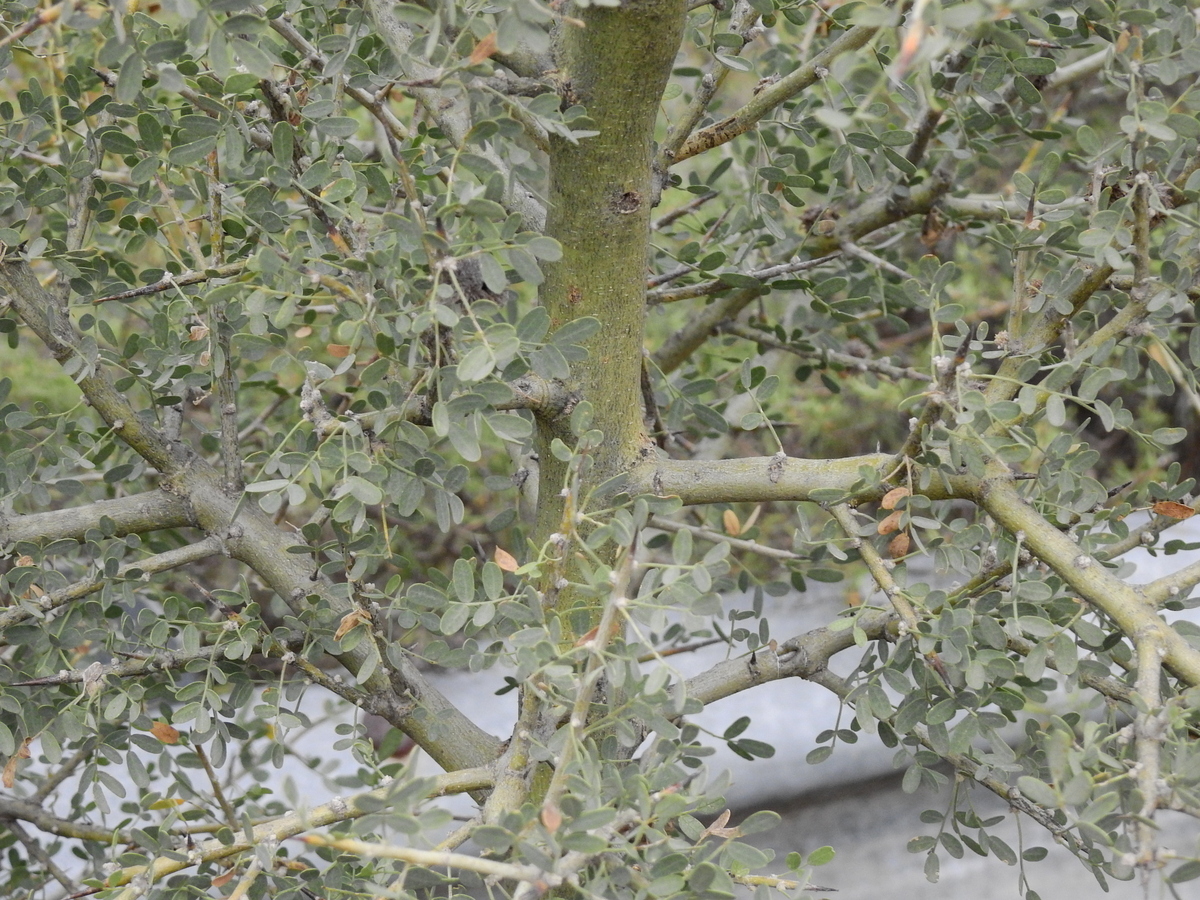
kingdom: Plantae
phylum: Tracheophyta
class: Magnoliopsida
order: Fabales
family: Fabaceae
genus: Geoffroea
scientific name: Geoffroea decorticans
